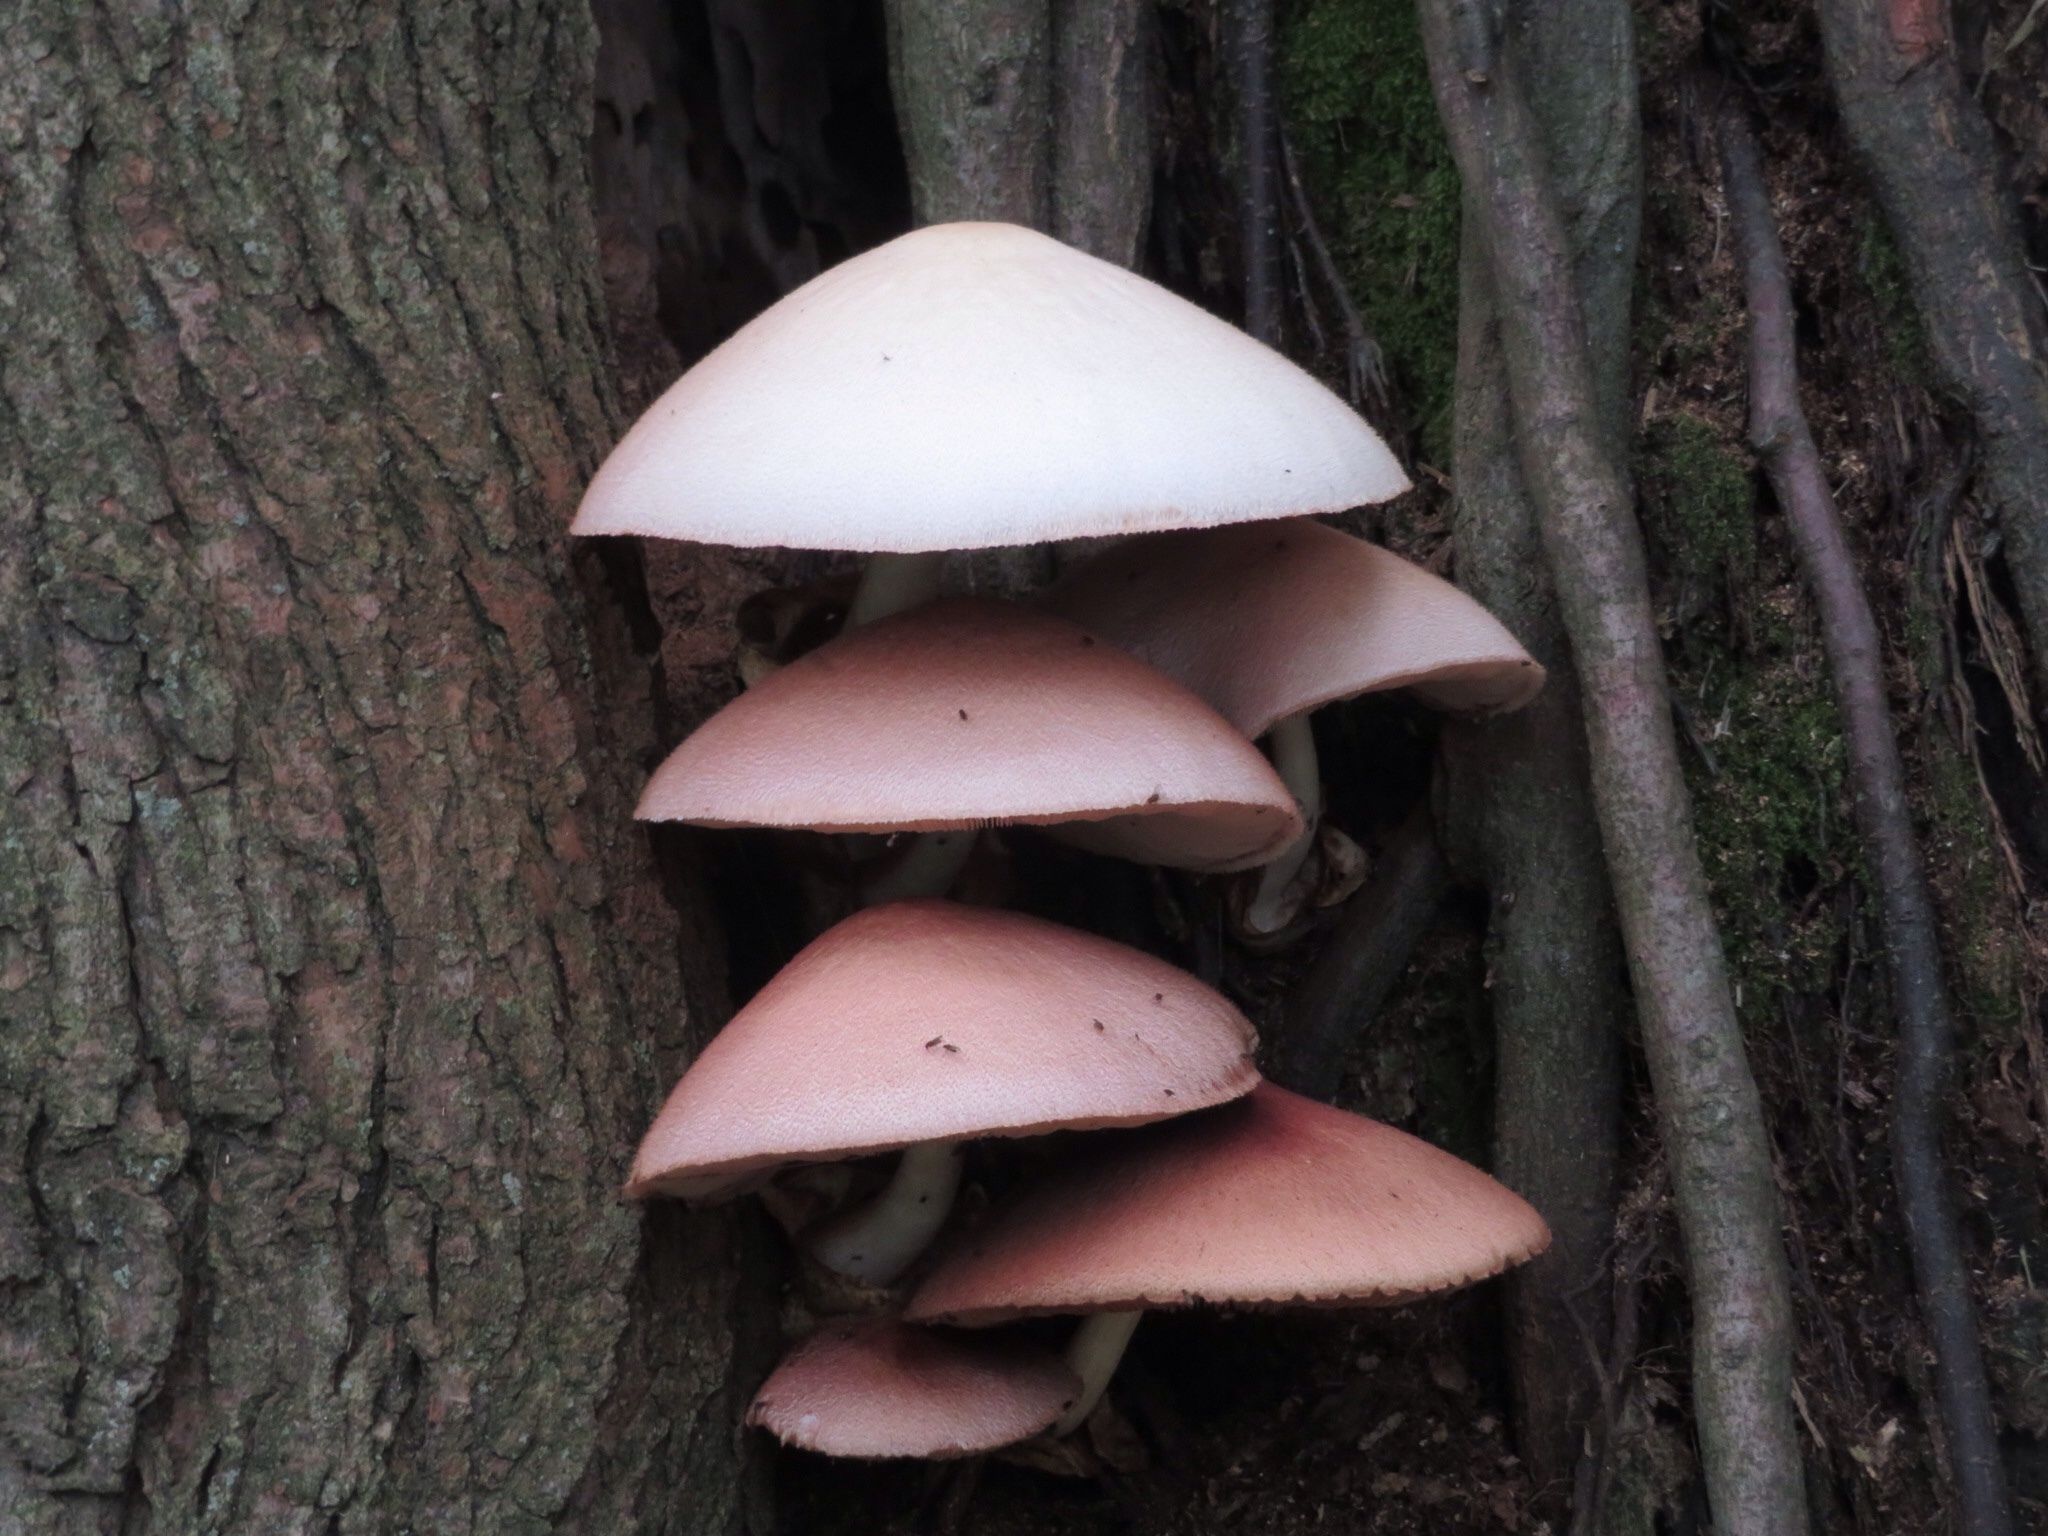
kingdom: Fungi
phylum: Basidiomycota
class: Agaricomycetes
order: Agaricales
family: Pluteaceae
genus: Volvariella
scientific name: Volvariella bombycina
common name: Silky rosegill
